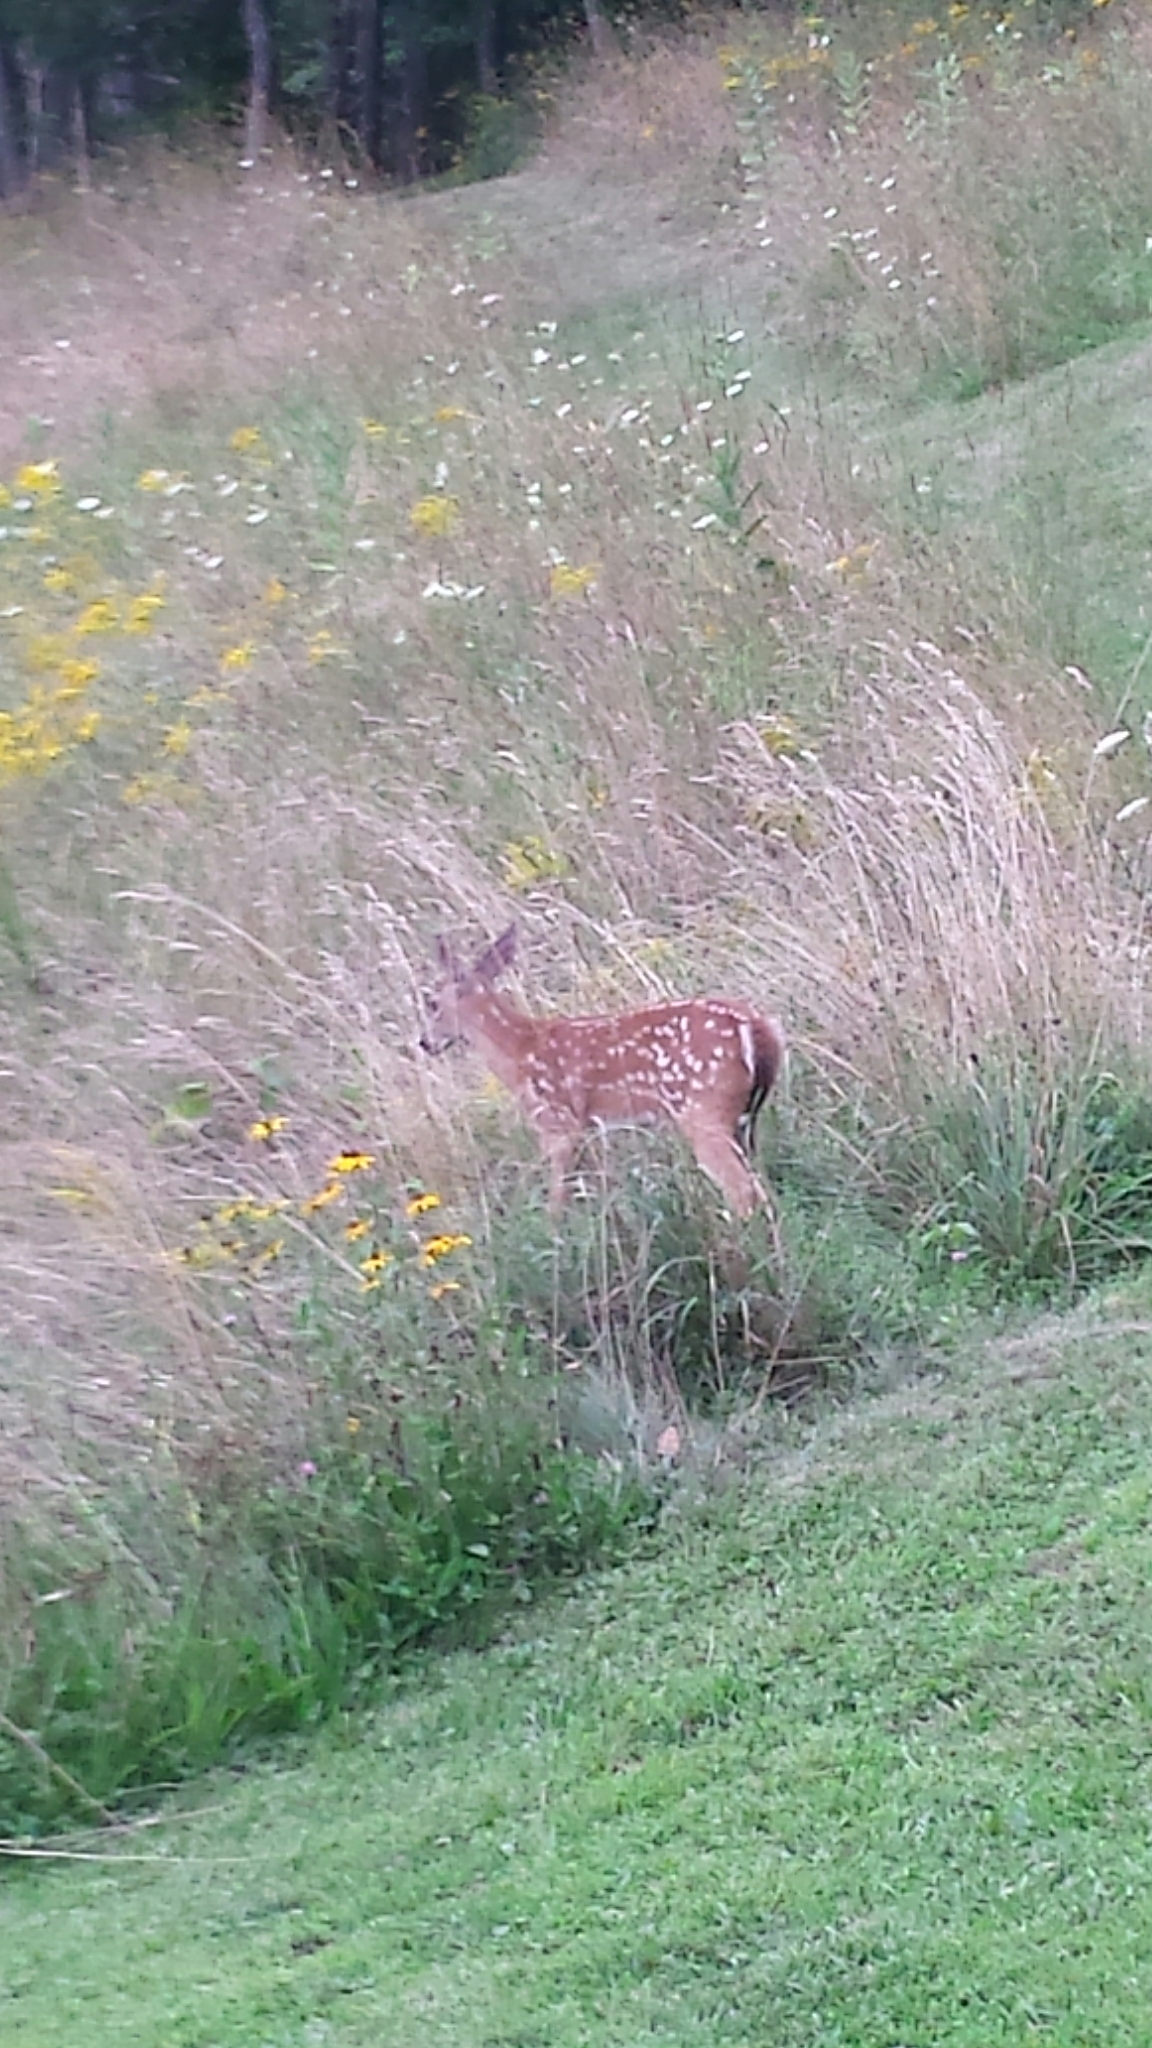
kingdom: Animalia
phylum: Chordata
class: Mammalia
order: Artiodactyla
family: Cervidae
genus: Odocoileus
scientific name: Odocoileus virginianus
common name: White-tailed deer
